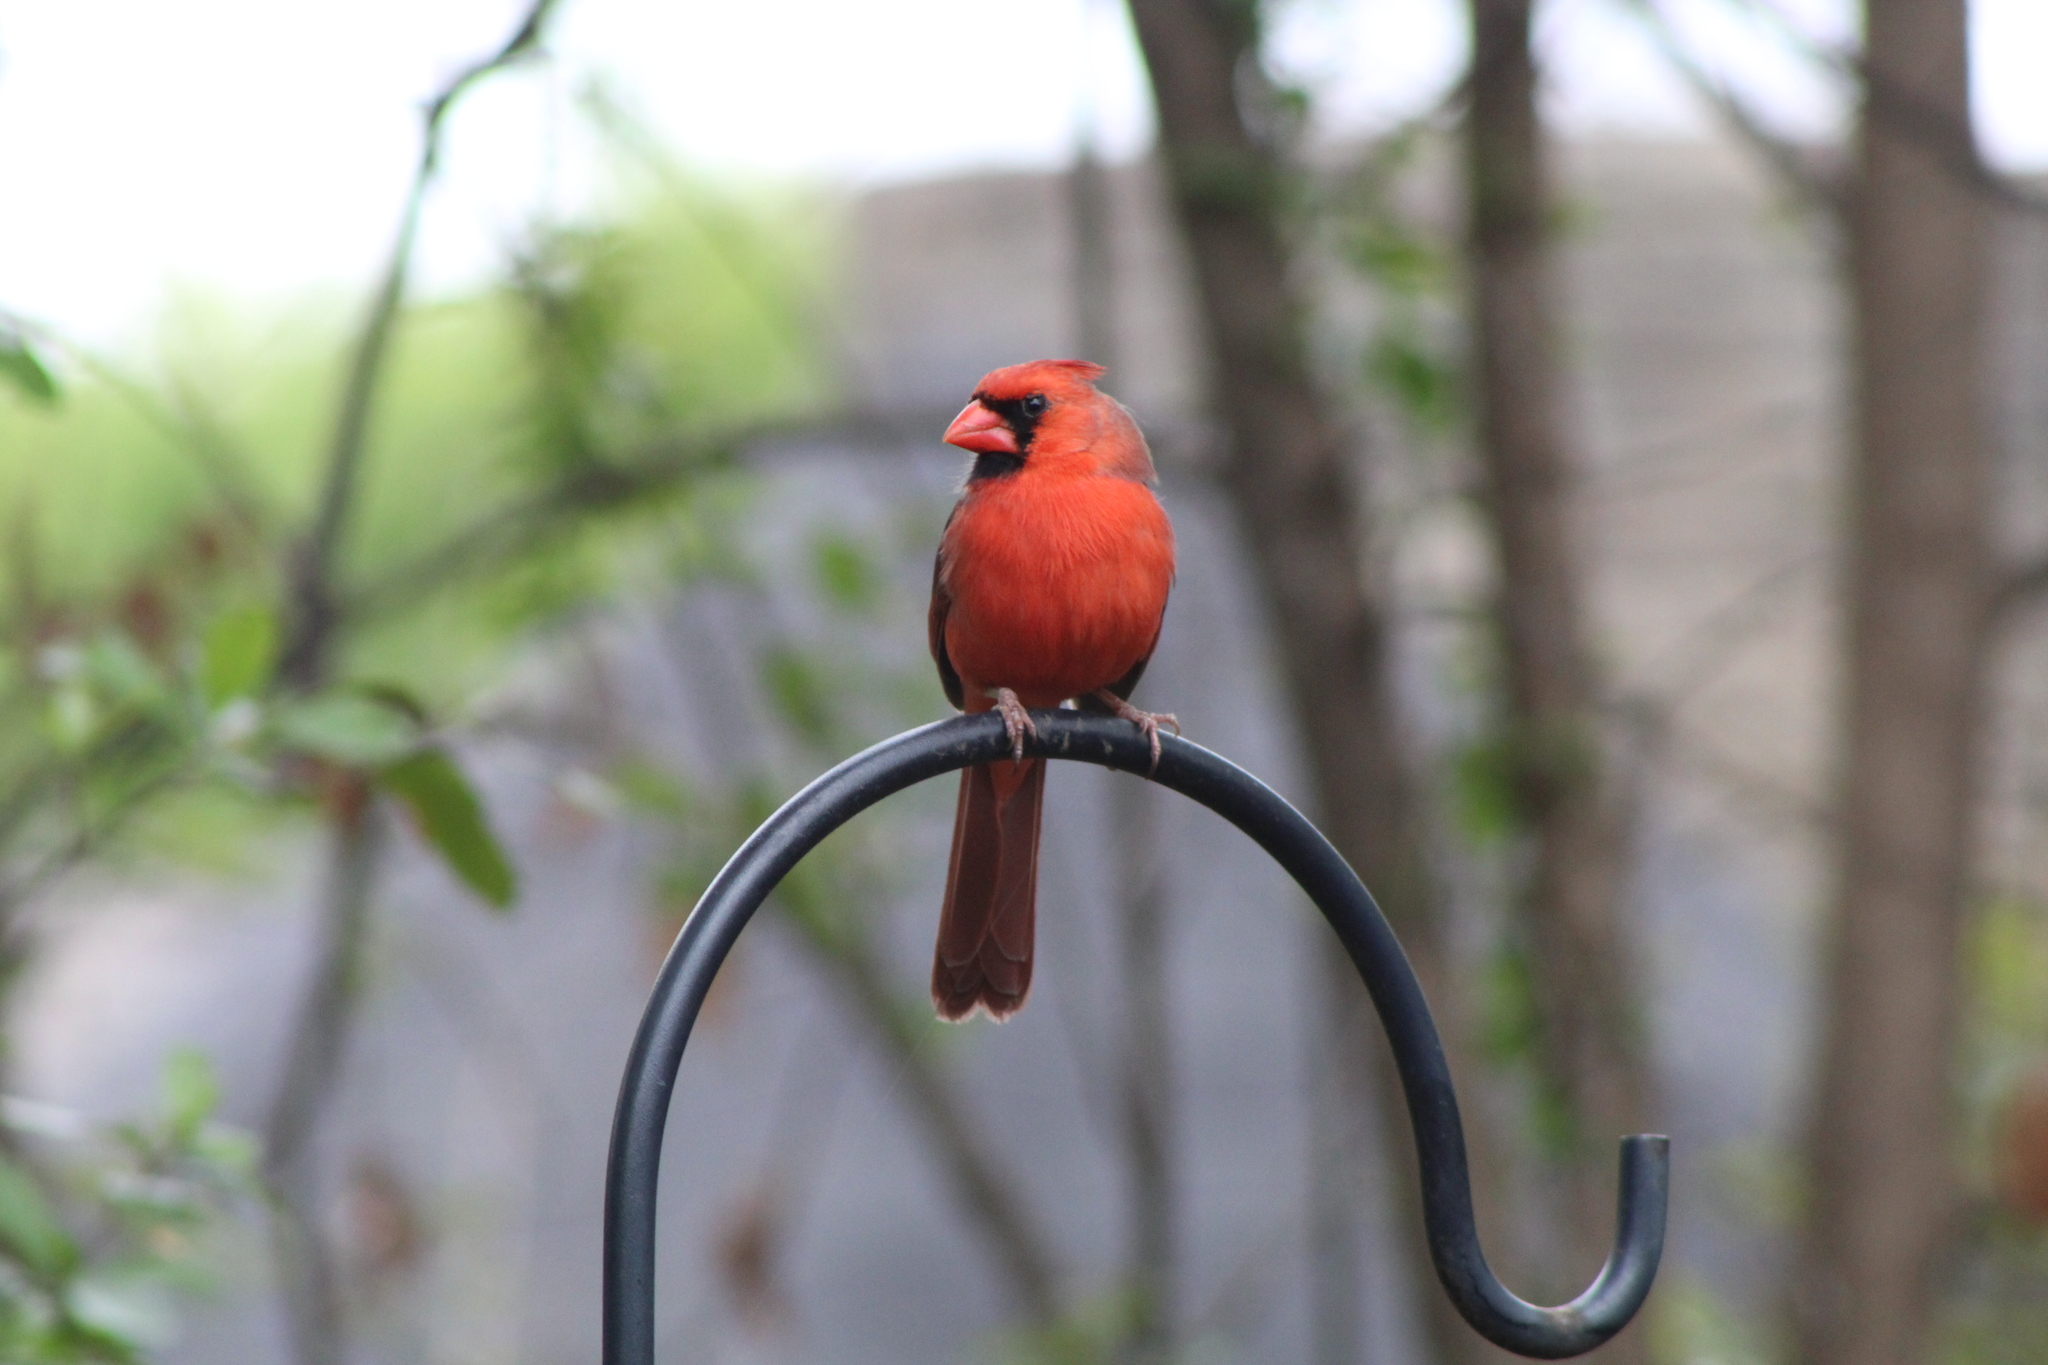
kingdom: Animalia
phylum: Chordata
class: Aves
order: Passeriformes
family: Cardinalidae
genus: Cardinalis
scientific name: Cardinalis cardinalis
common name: Northern cardinal
